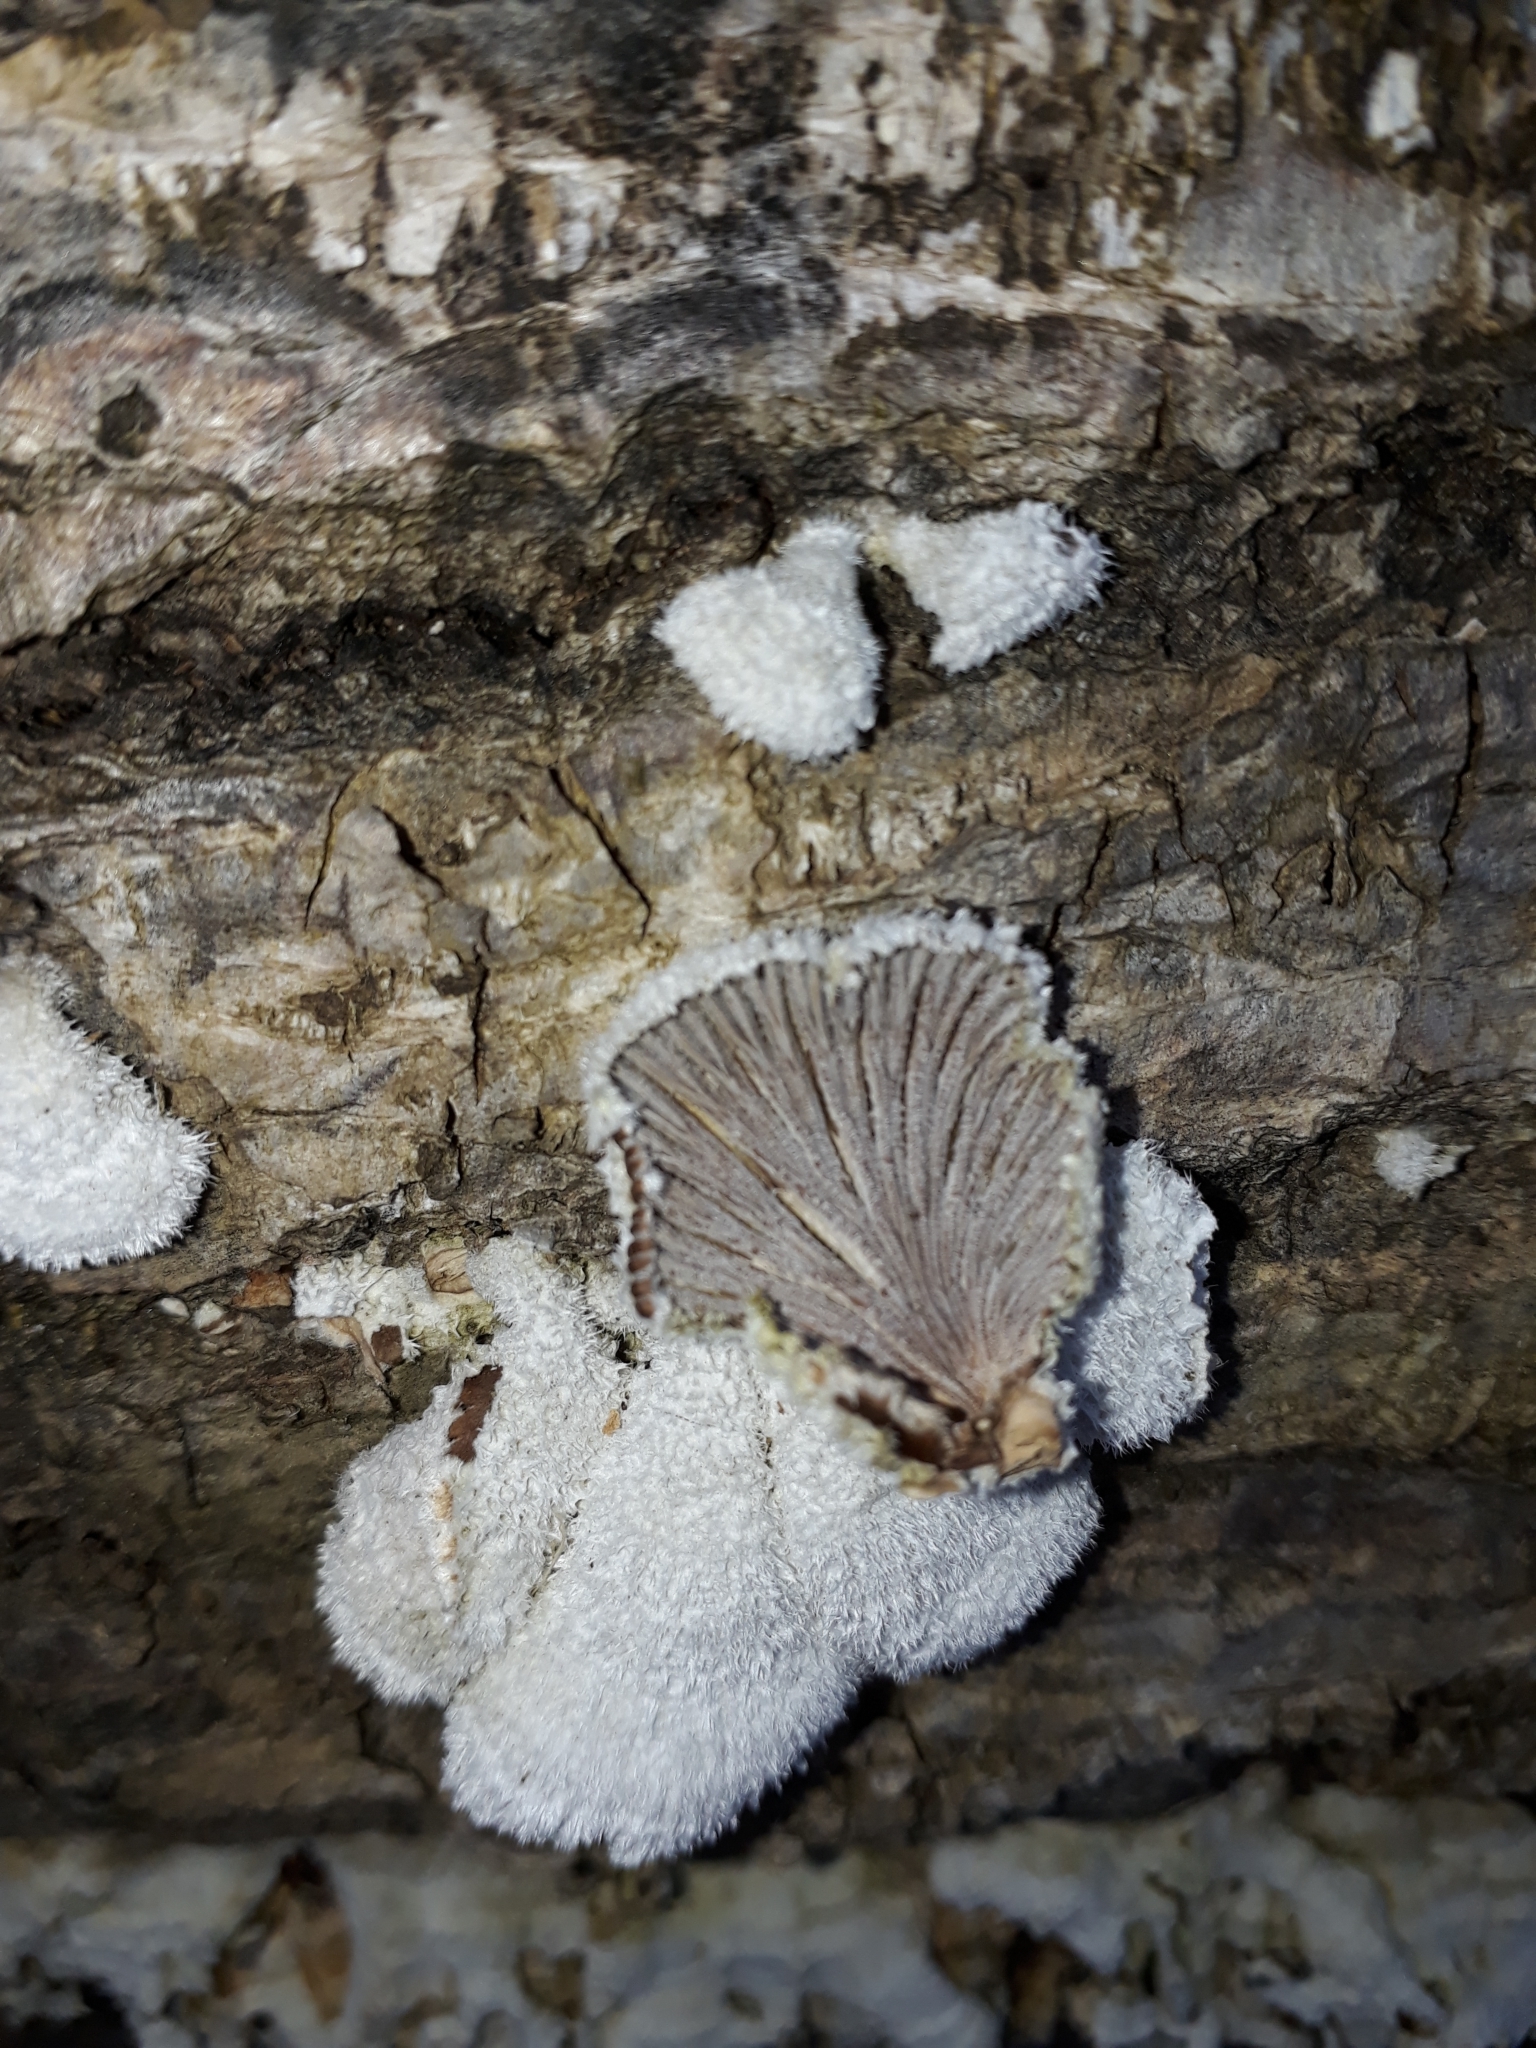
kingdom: Fungi
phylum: Basidiomycota
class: Agaricomycetes
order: Agaricales
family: Schizophyllaceae
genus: Schizophyllum
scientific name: Schizophyllum commune
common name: Common porecrust
